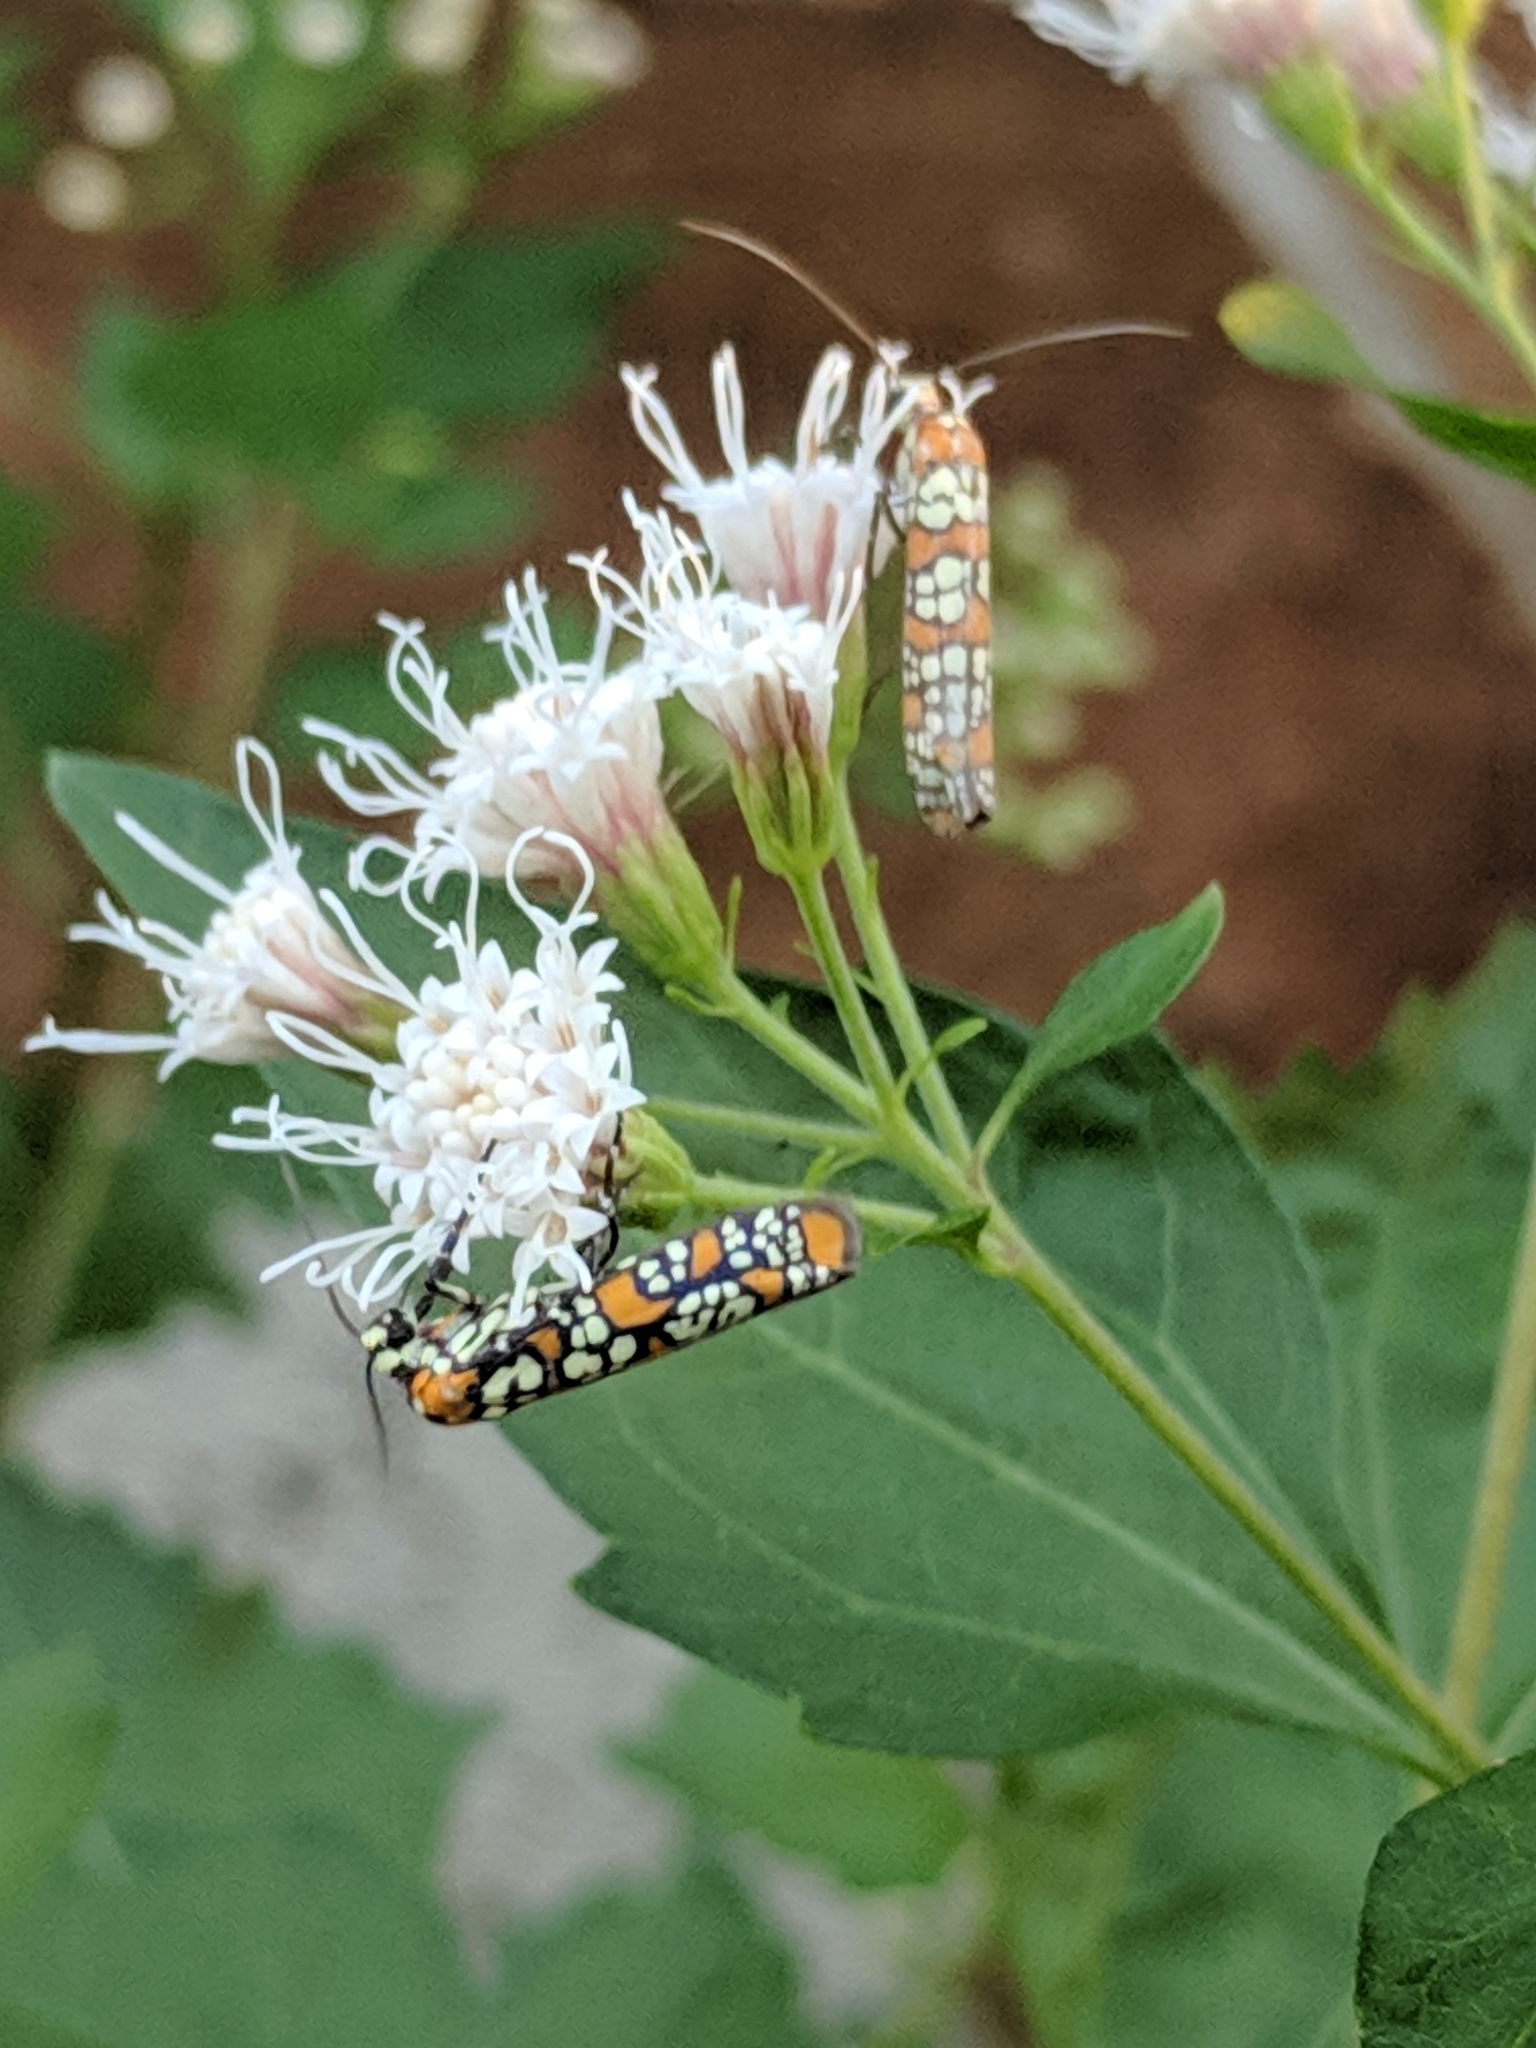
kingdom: Animalia
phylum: Arthropoda
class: Insecta
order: Lepidoptera
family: Attevidae
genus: Atteva
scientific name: Atteva punctella
